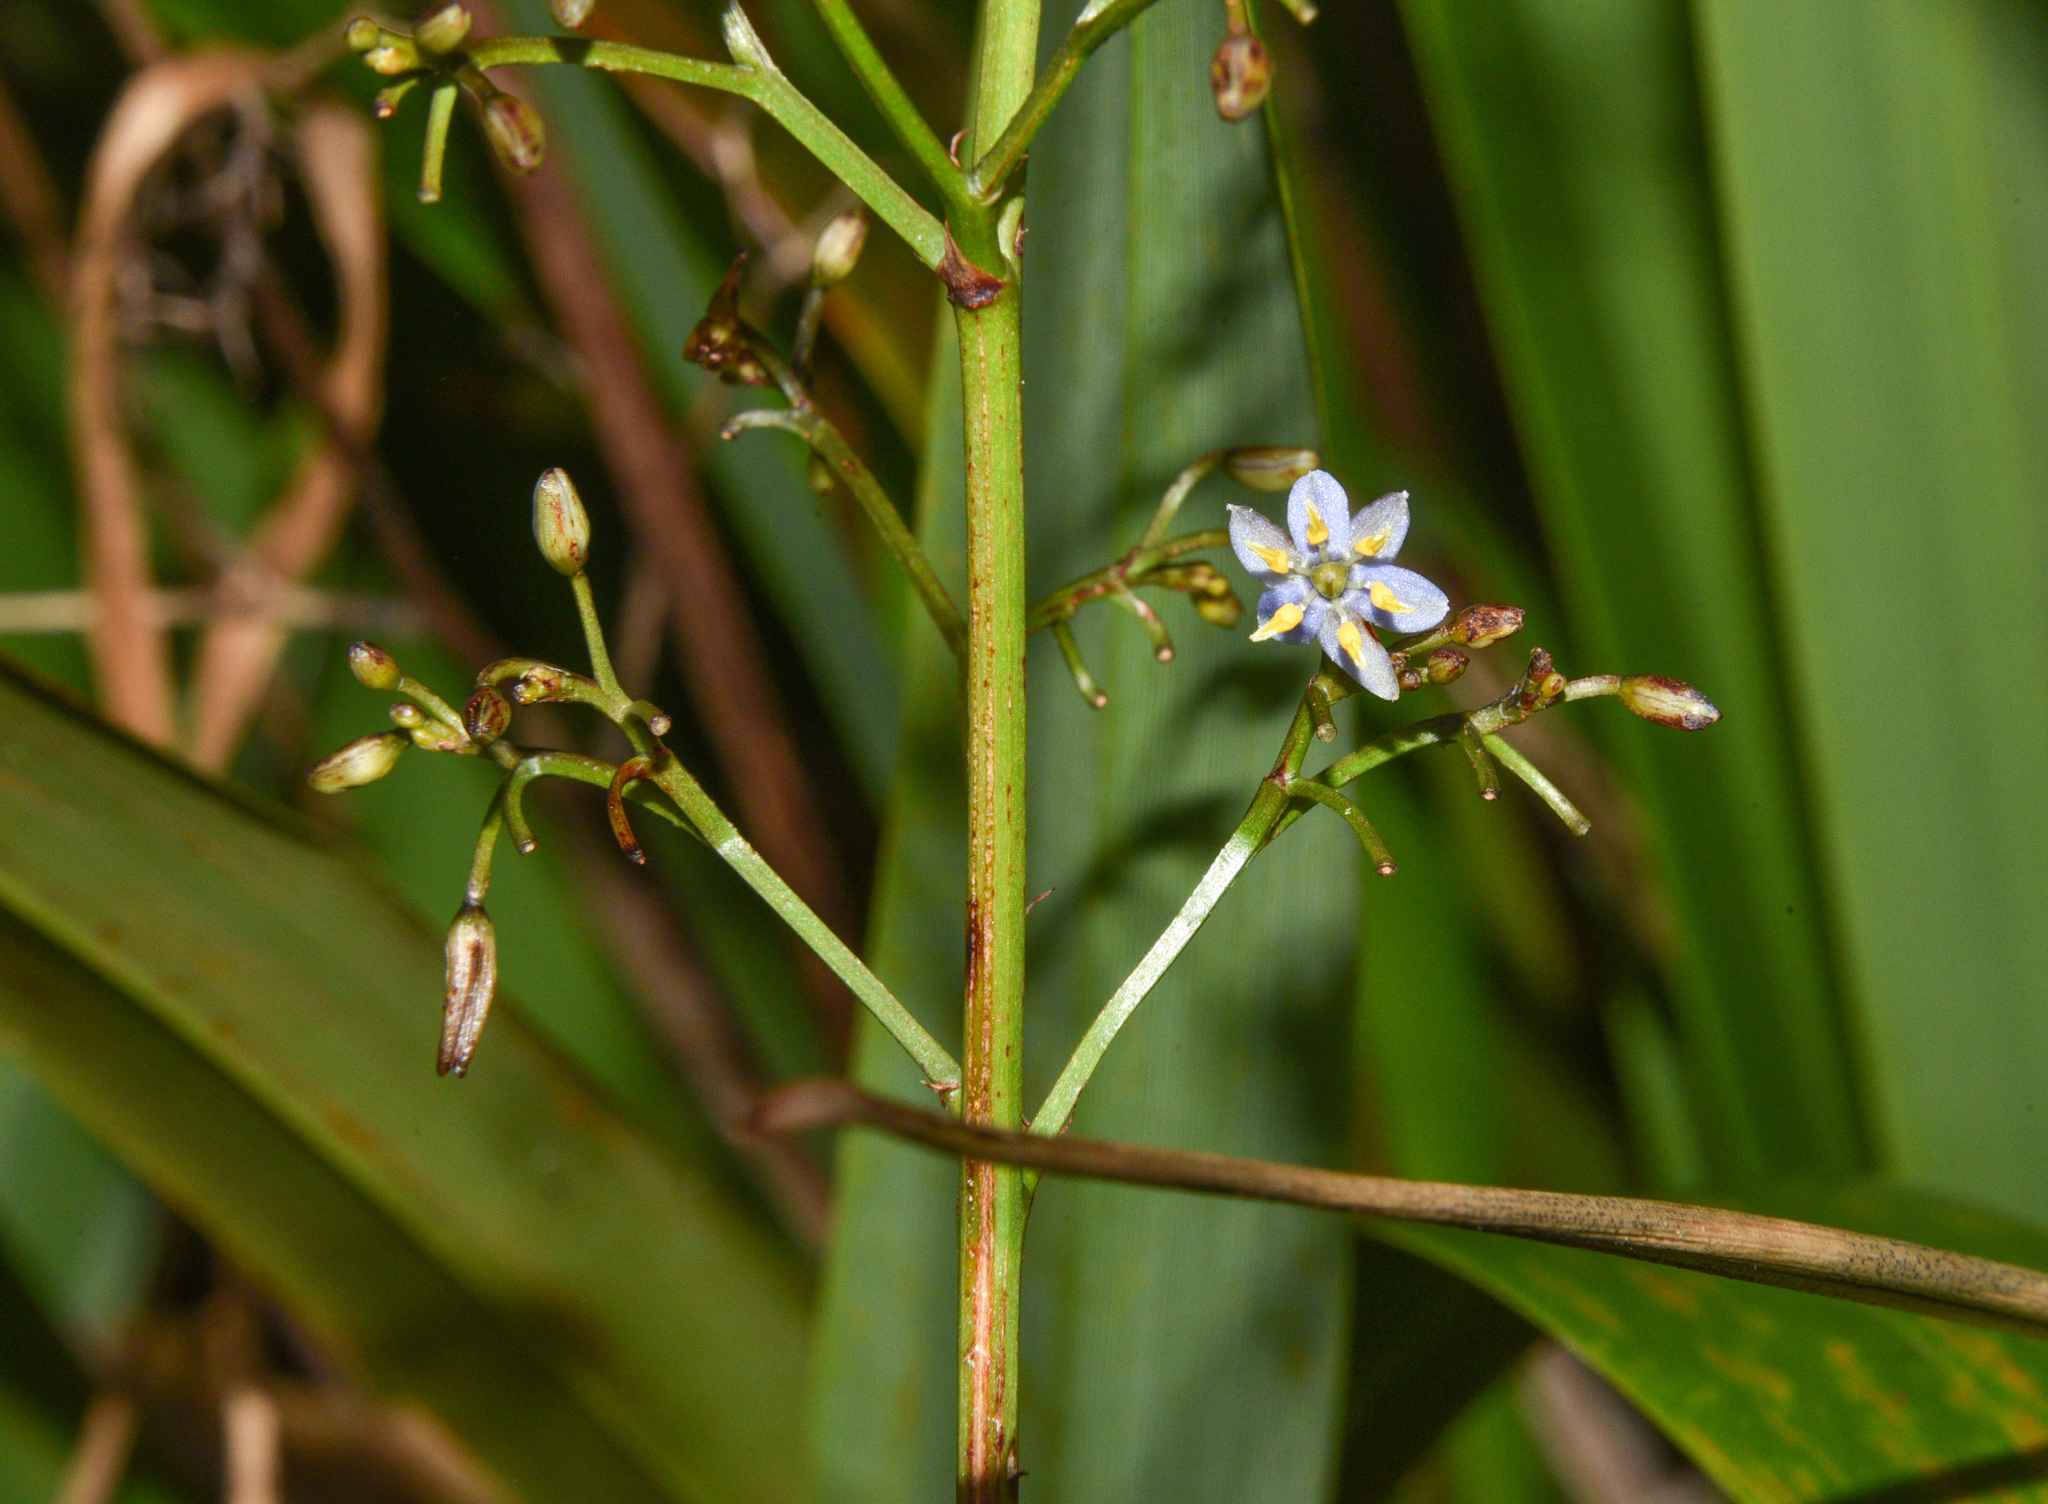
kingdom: Plantae
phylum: Tracheophyta
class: Liliopsida
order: Asparagales
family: Asphodelaceae
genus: Dianella
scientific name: Dianella sandwicensis
